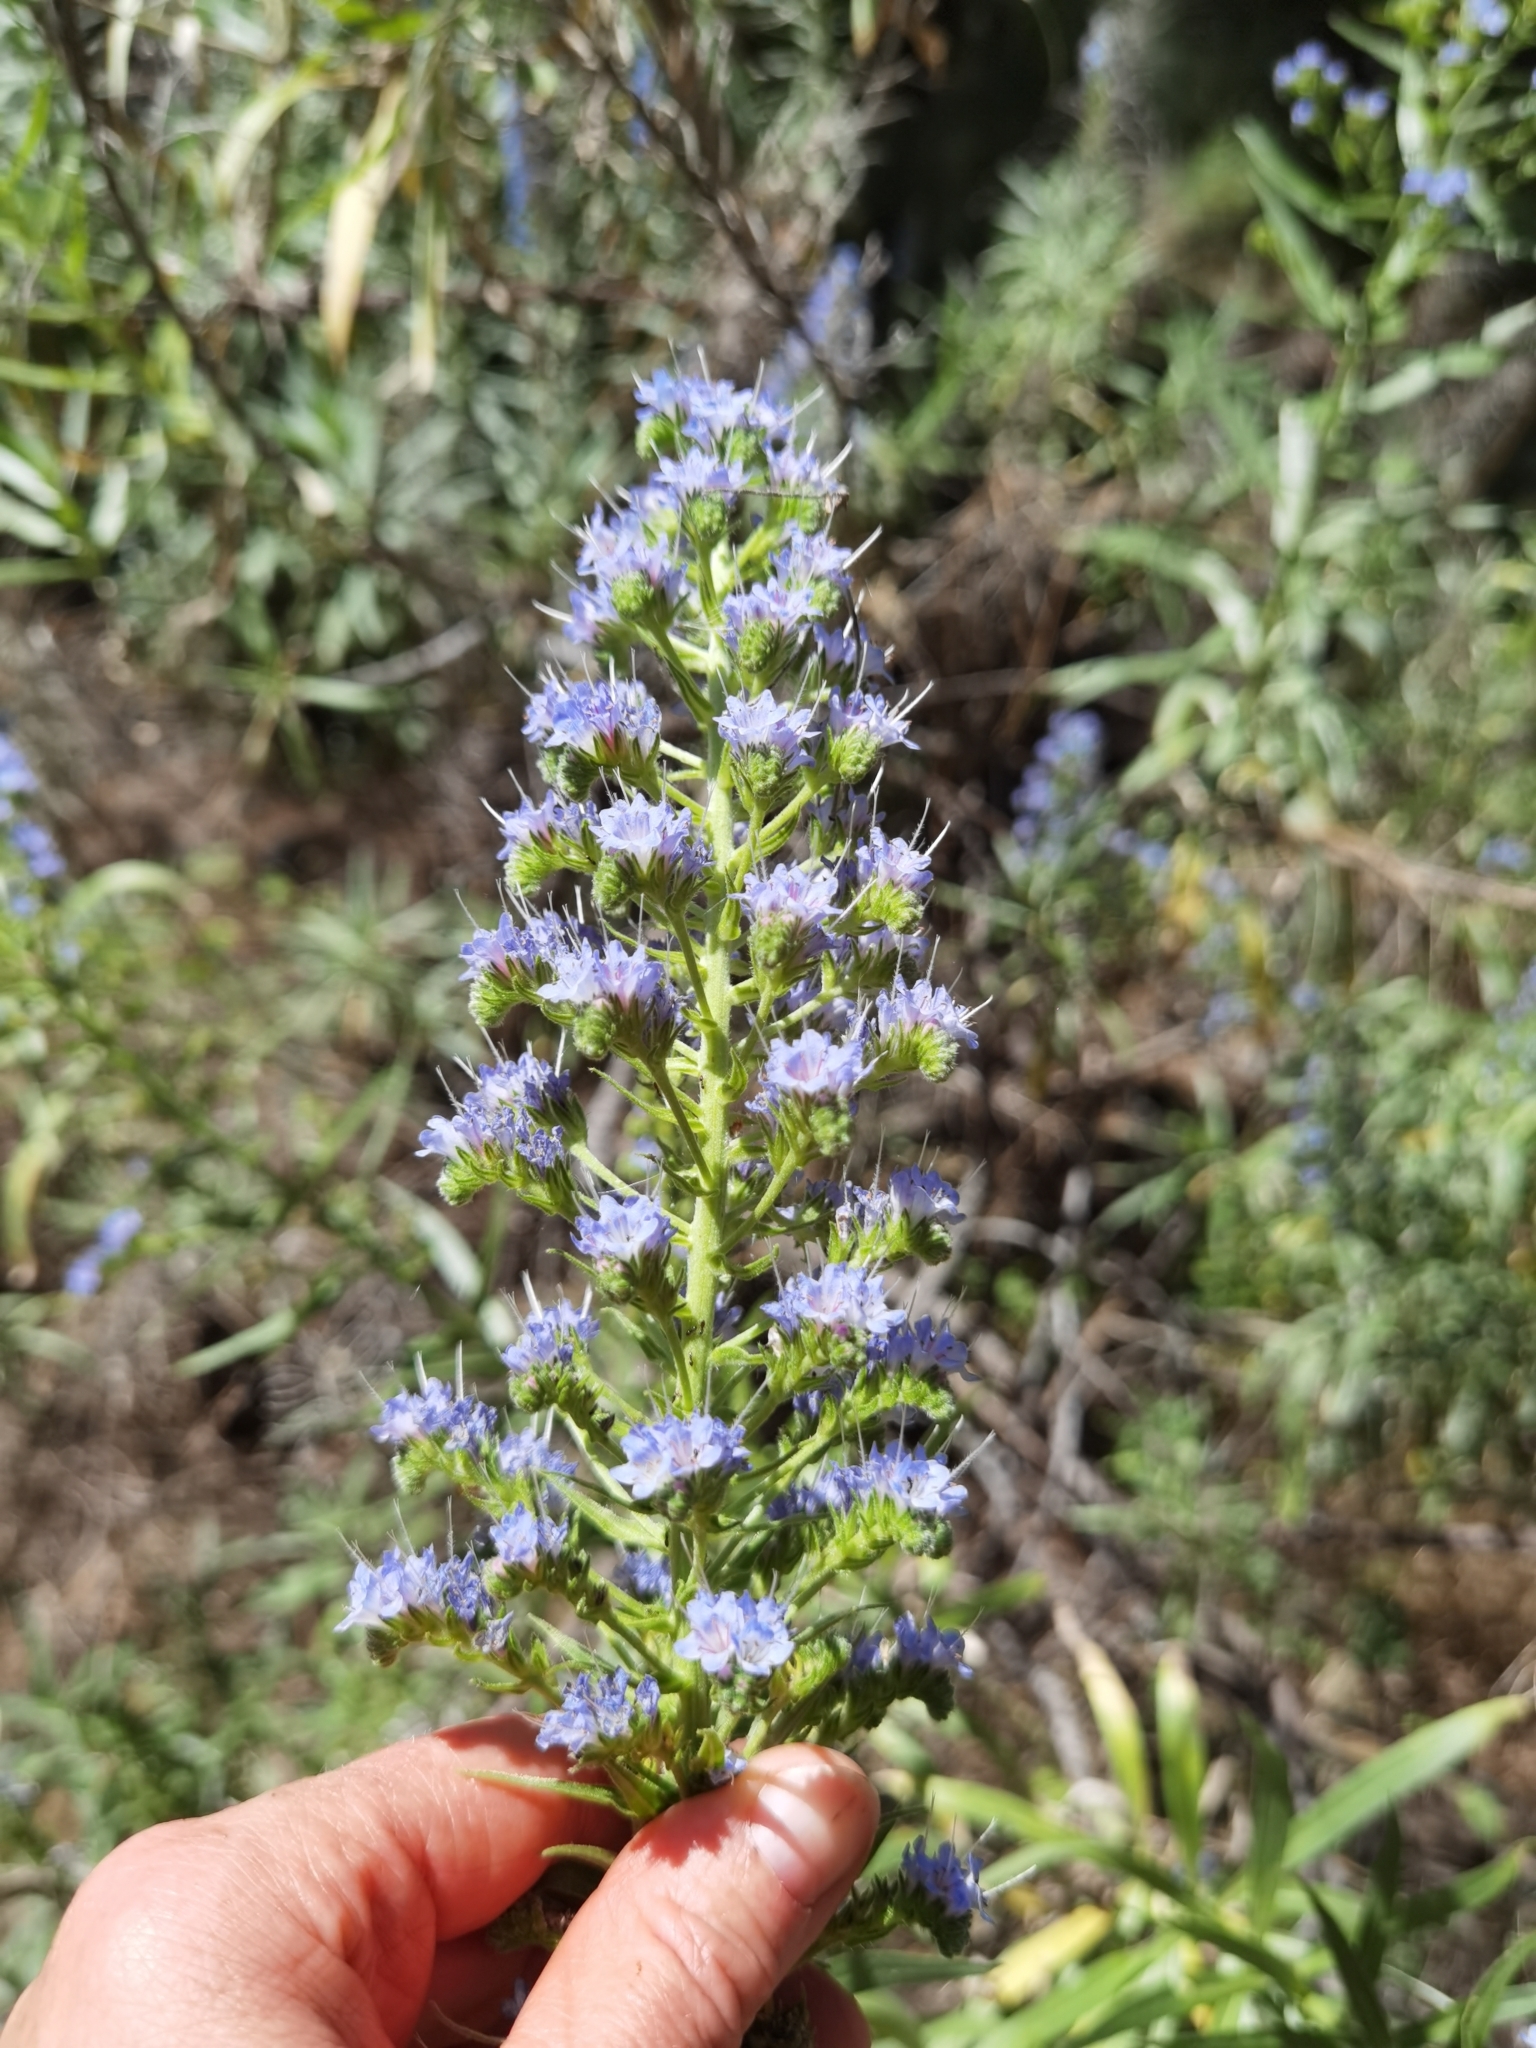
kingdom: Plantae
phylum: Tracheophyta
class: Magnoliopsida
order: Boraginales
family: Boraginaceae
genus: Echium
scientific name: Echium webbii
